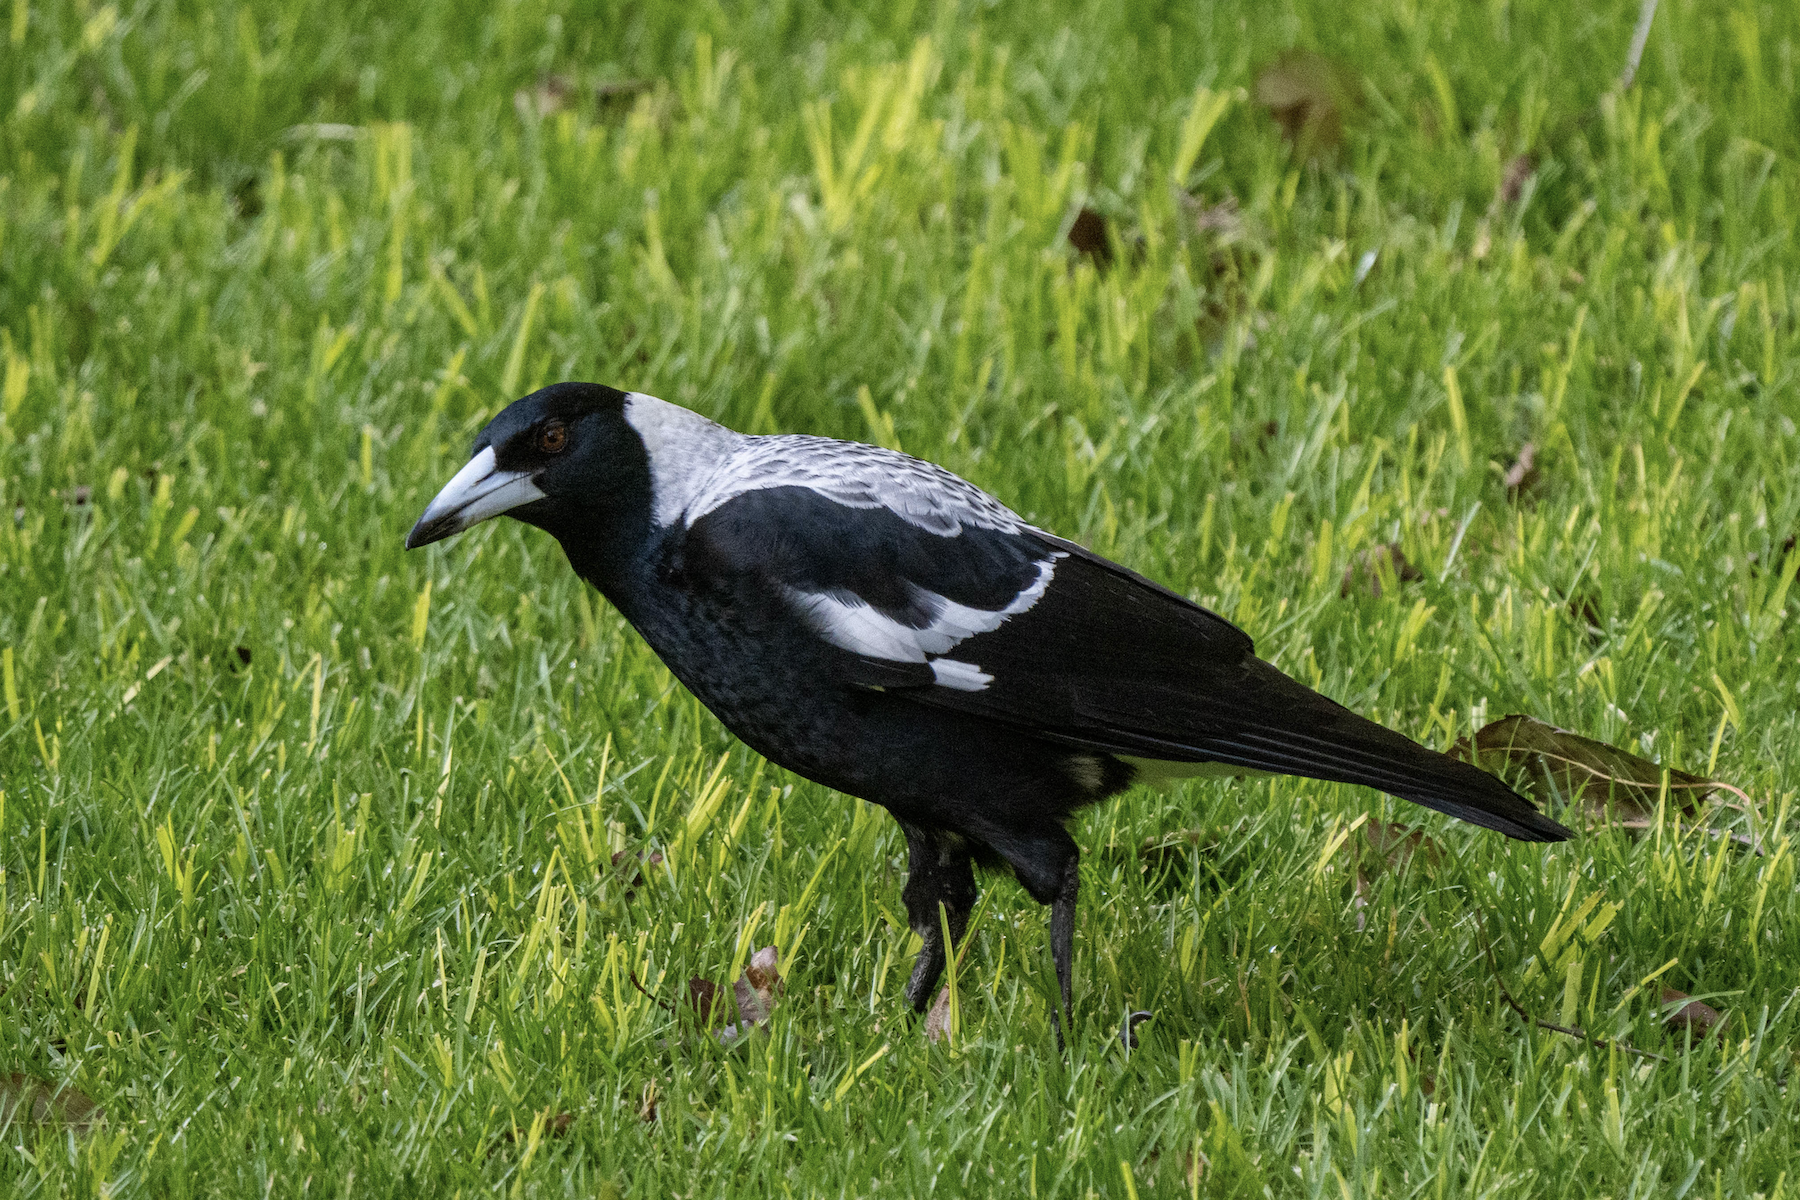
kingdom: Animalia
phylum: Chordata
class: Aves
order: Passeriformes
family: Cracticidae
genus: Gymnorhina
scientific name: Gymnorhina tibicen
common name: Australian magpie
